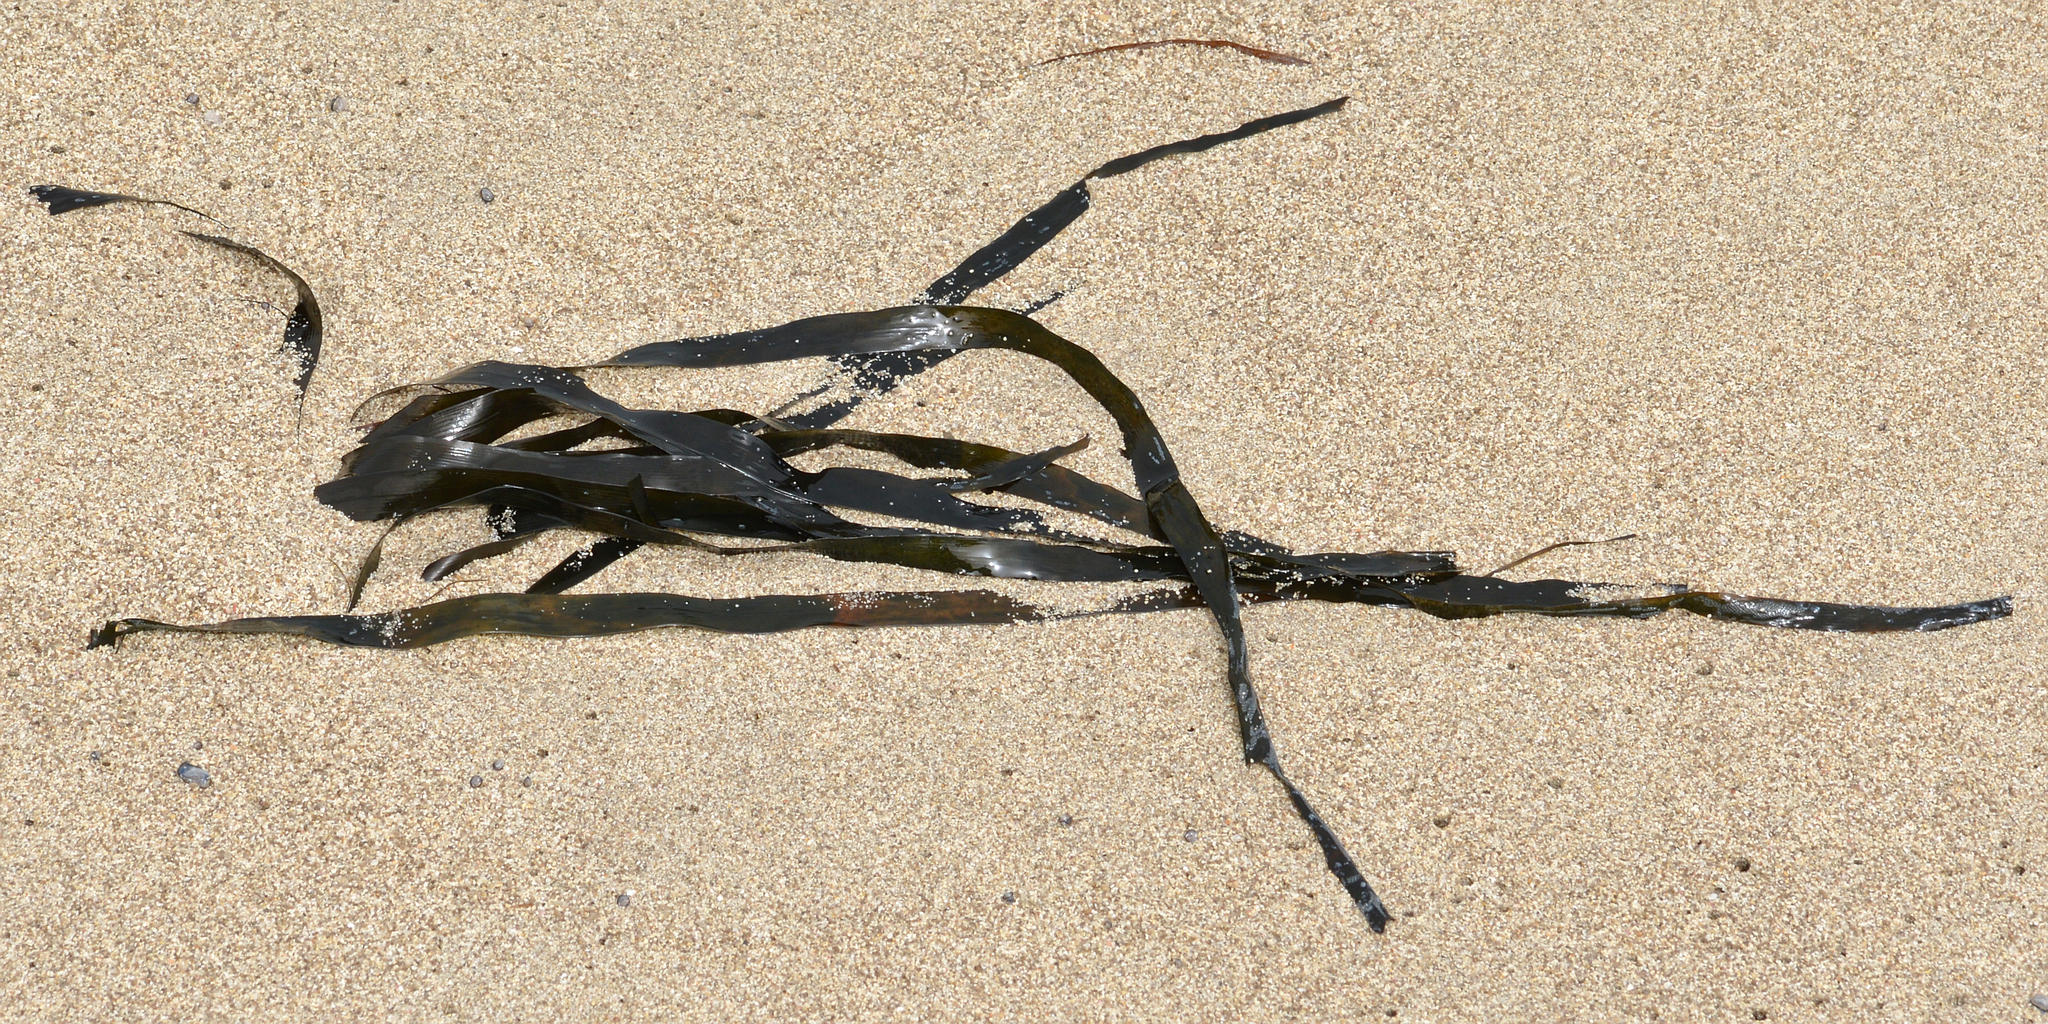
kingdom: Plantae
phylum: Tracheophyta
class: Liliopsida
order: Alismatales
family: Posidoniaceae
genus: Posidonia
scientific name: Posidonia oceanica
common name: Mediterranean tapeweed
